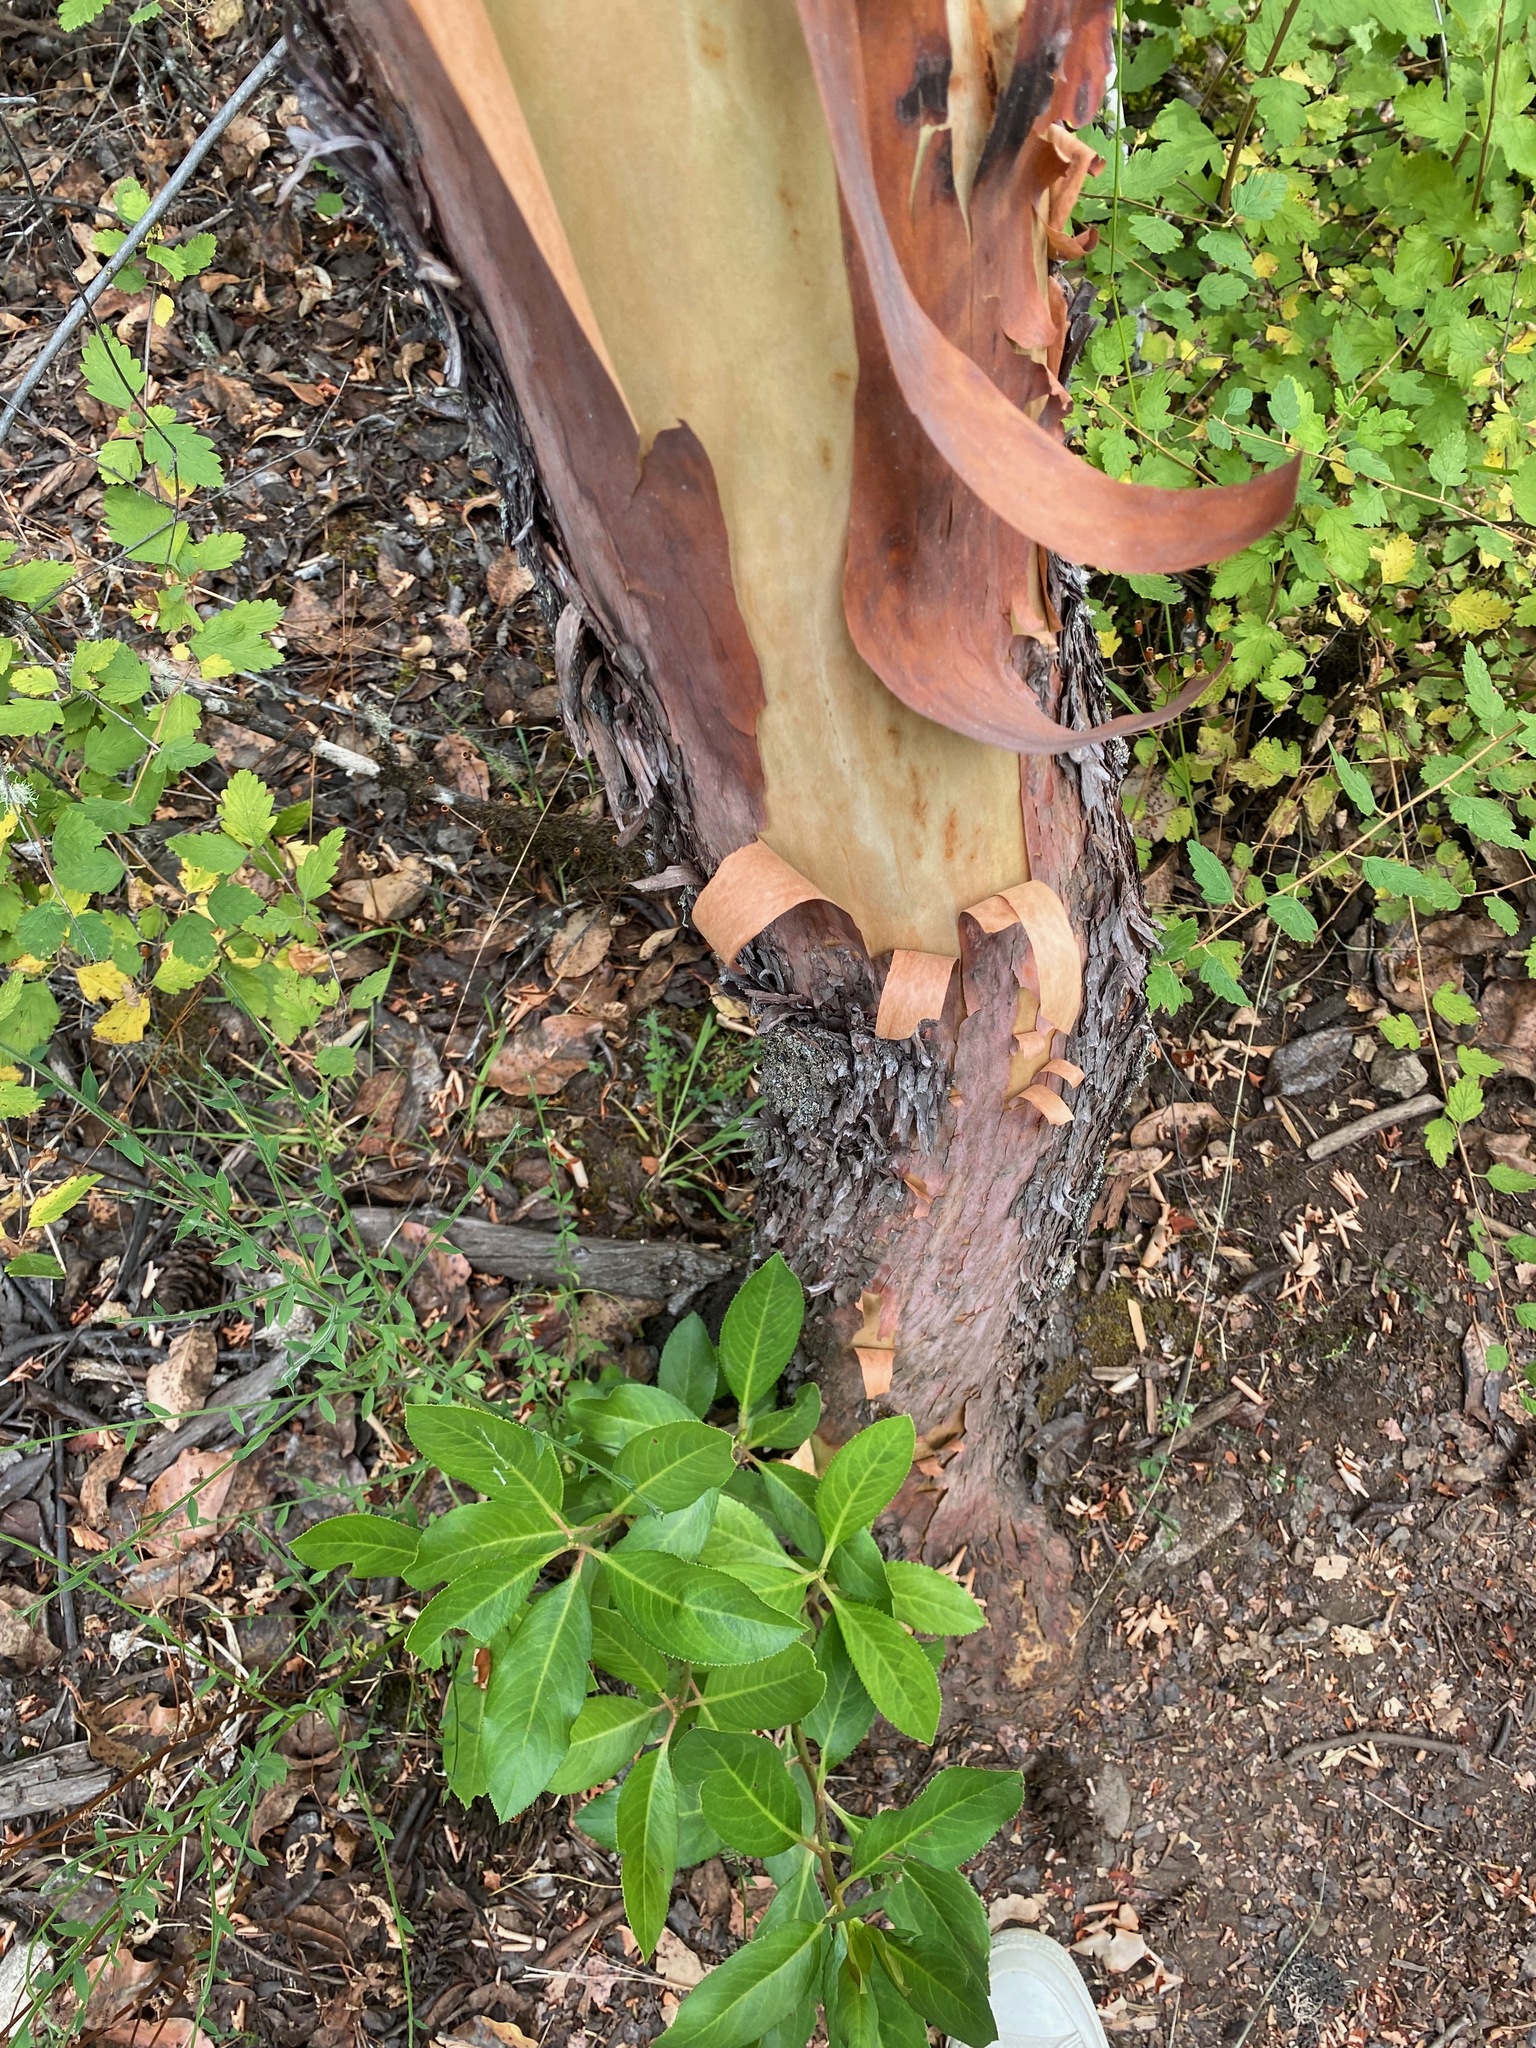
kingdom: Plantae
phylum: Tracheophyta
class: Magnoliopsida
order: Ericales
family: Ericaceae
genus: Arbutus
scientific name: Arbutus menziesii
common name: Pacific madrone
